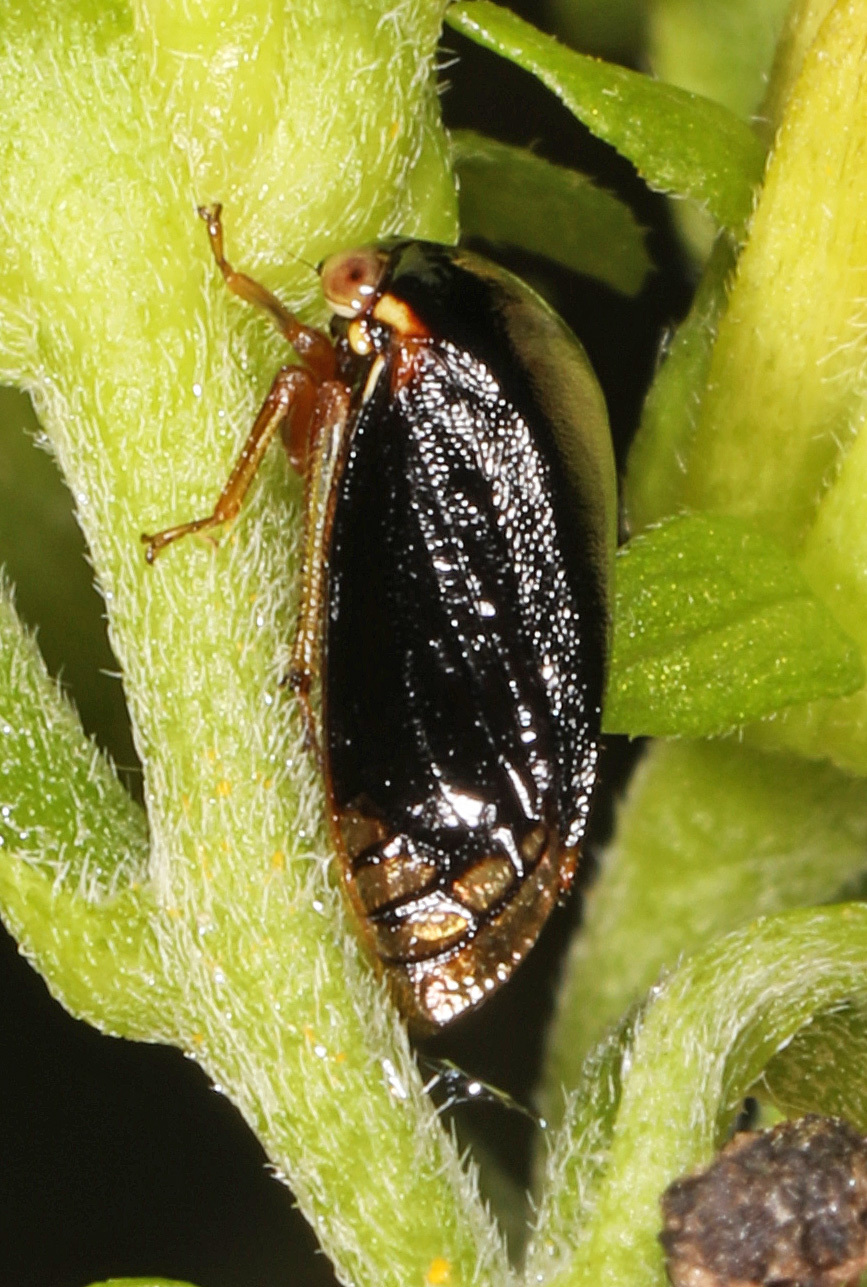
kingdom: Animalia
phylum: Arthropoda
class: Insecta
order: Hemiptera
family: Membracidae
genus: Acutalis
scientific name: Acutalis tartarea
